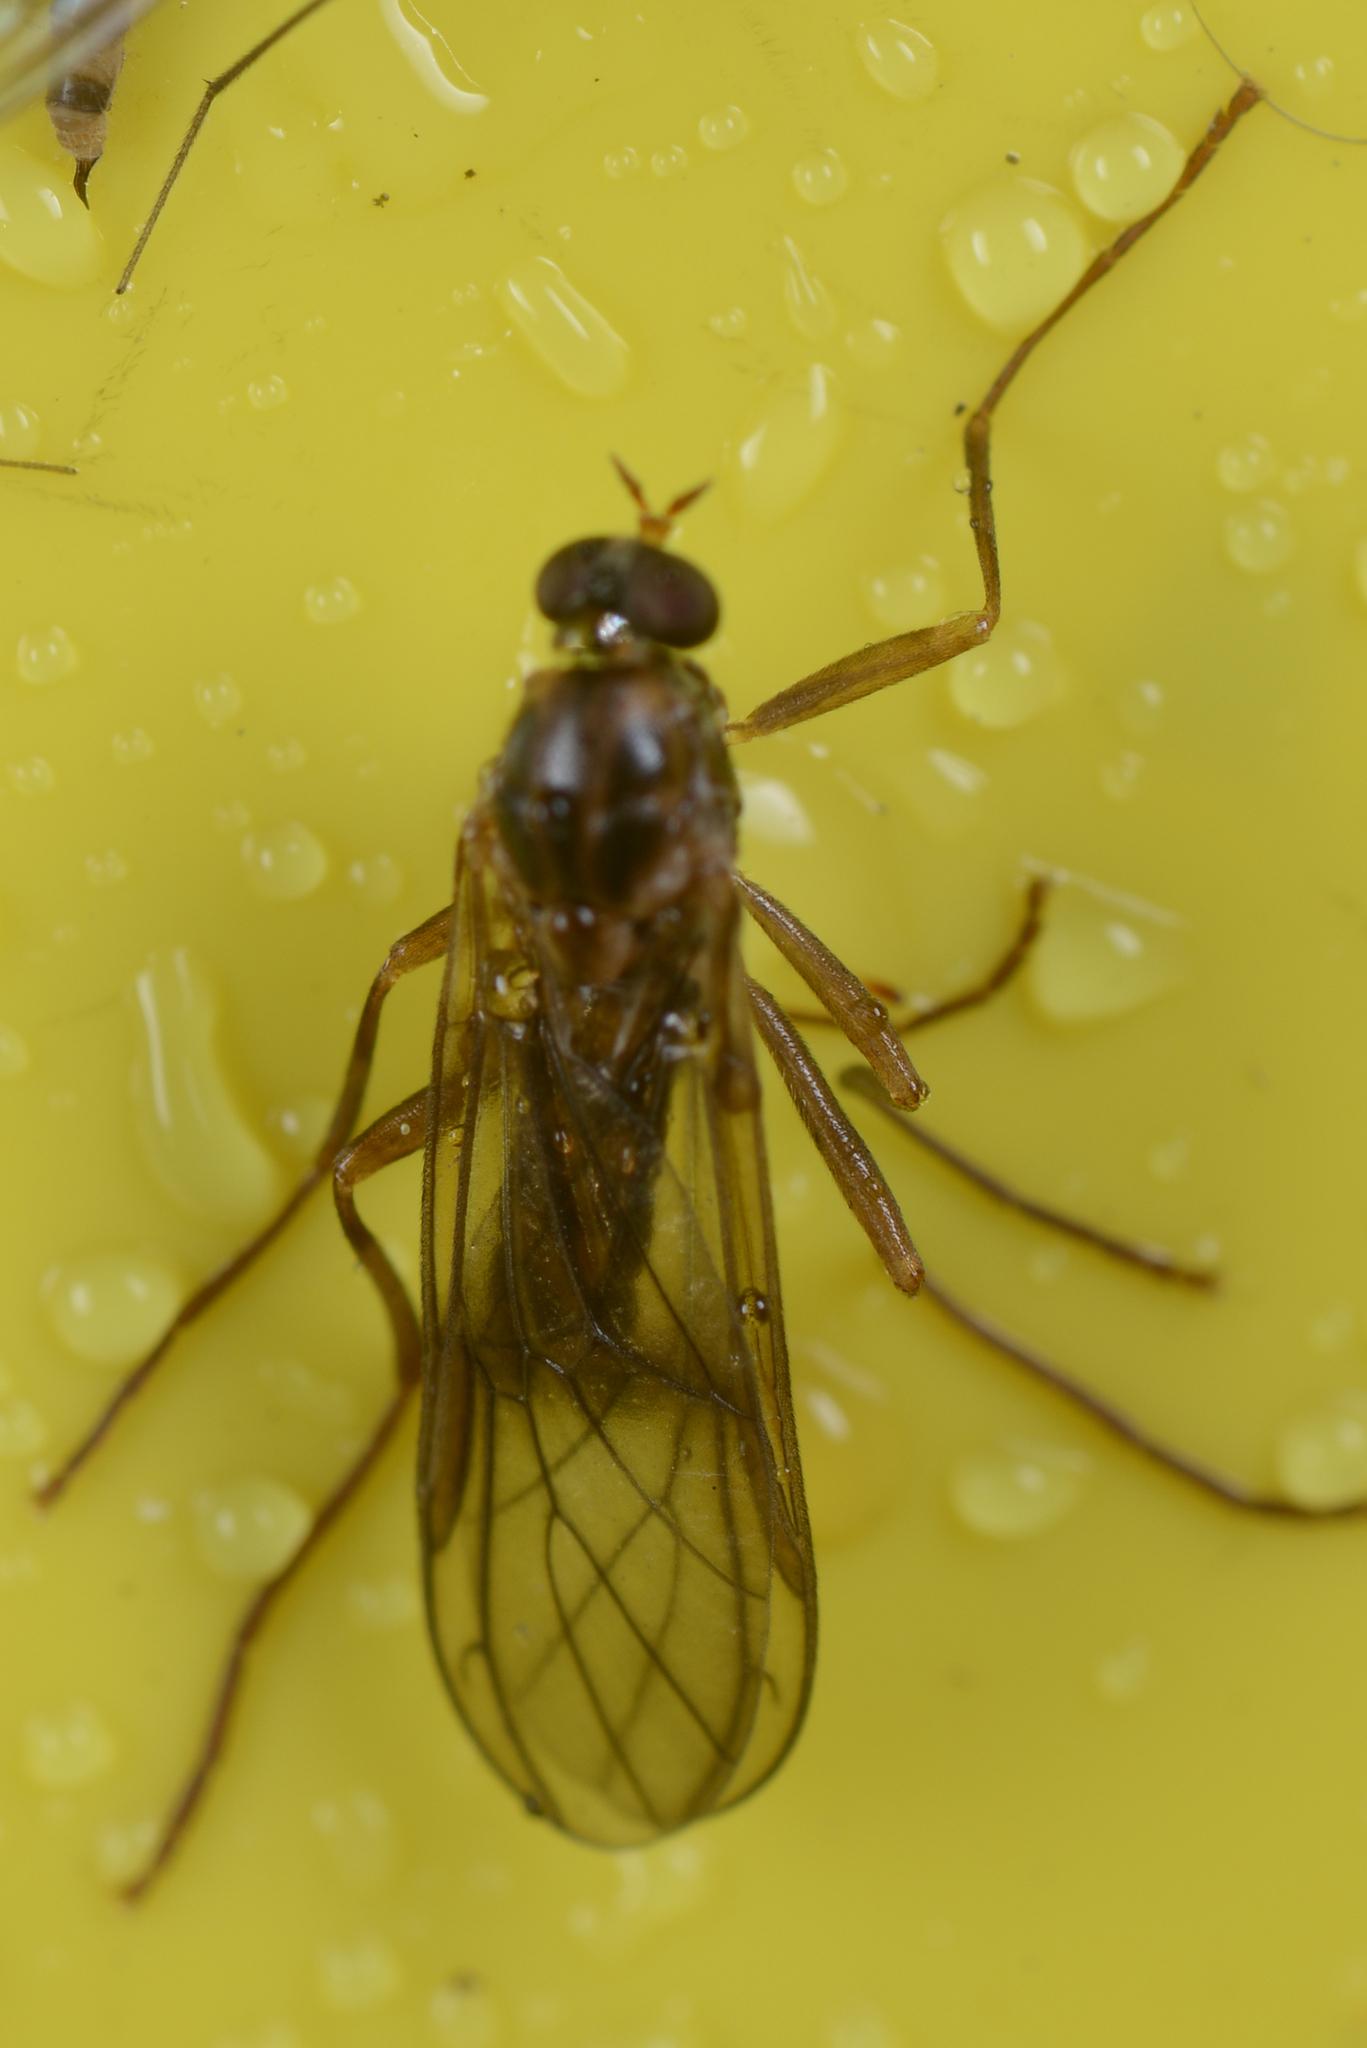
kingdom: Animalia
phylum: Arthropoda
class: Insecta
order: Diptera
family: Stratiomyidae
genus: Boreoides
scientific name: Boreoides tasmaniensis
